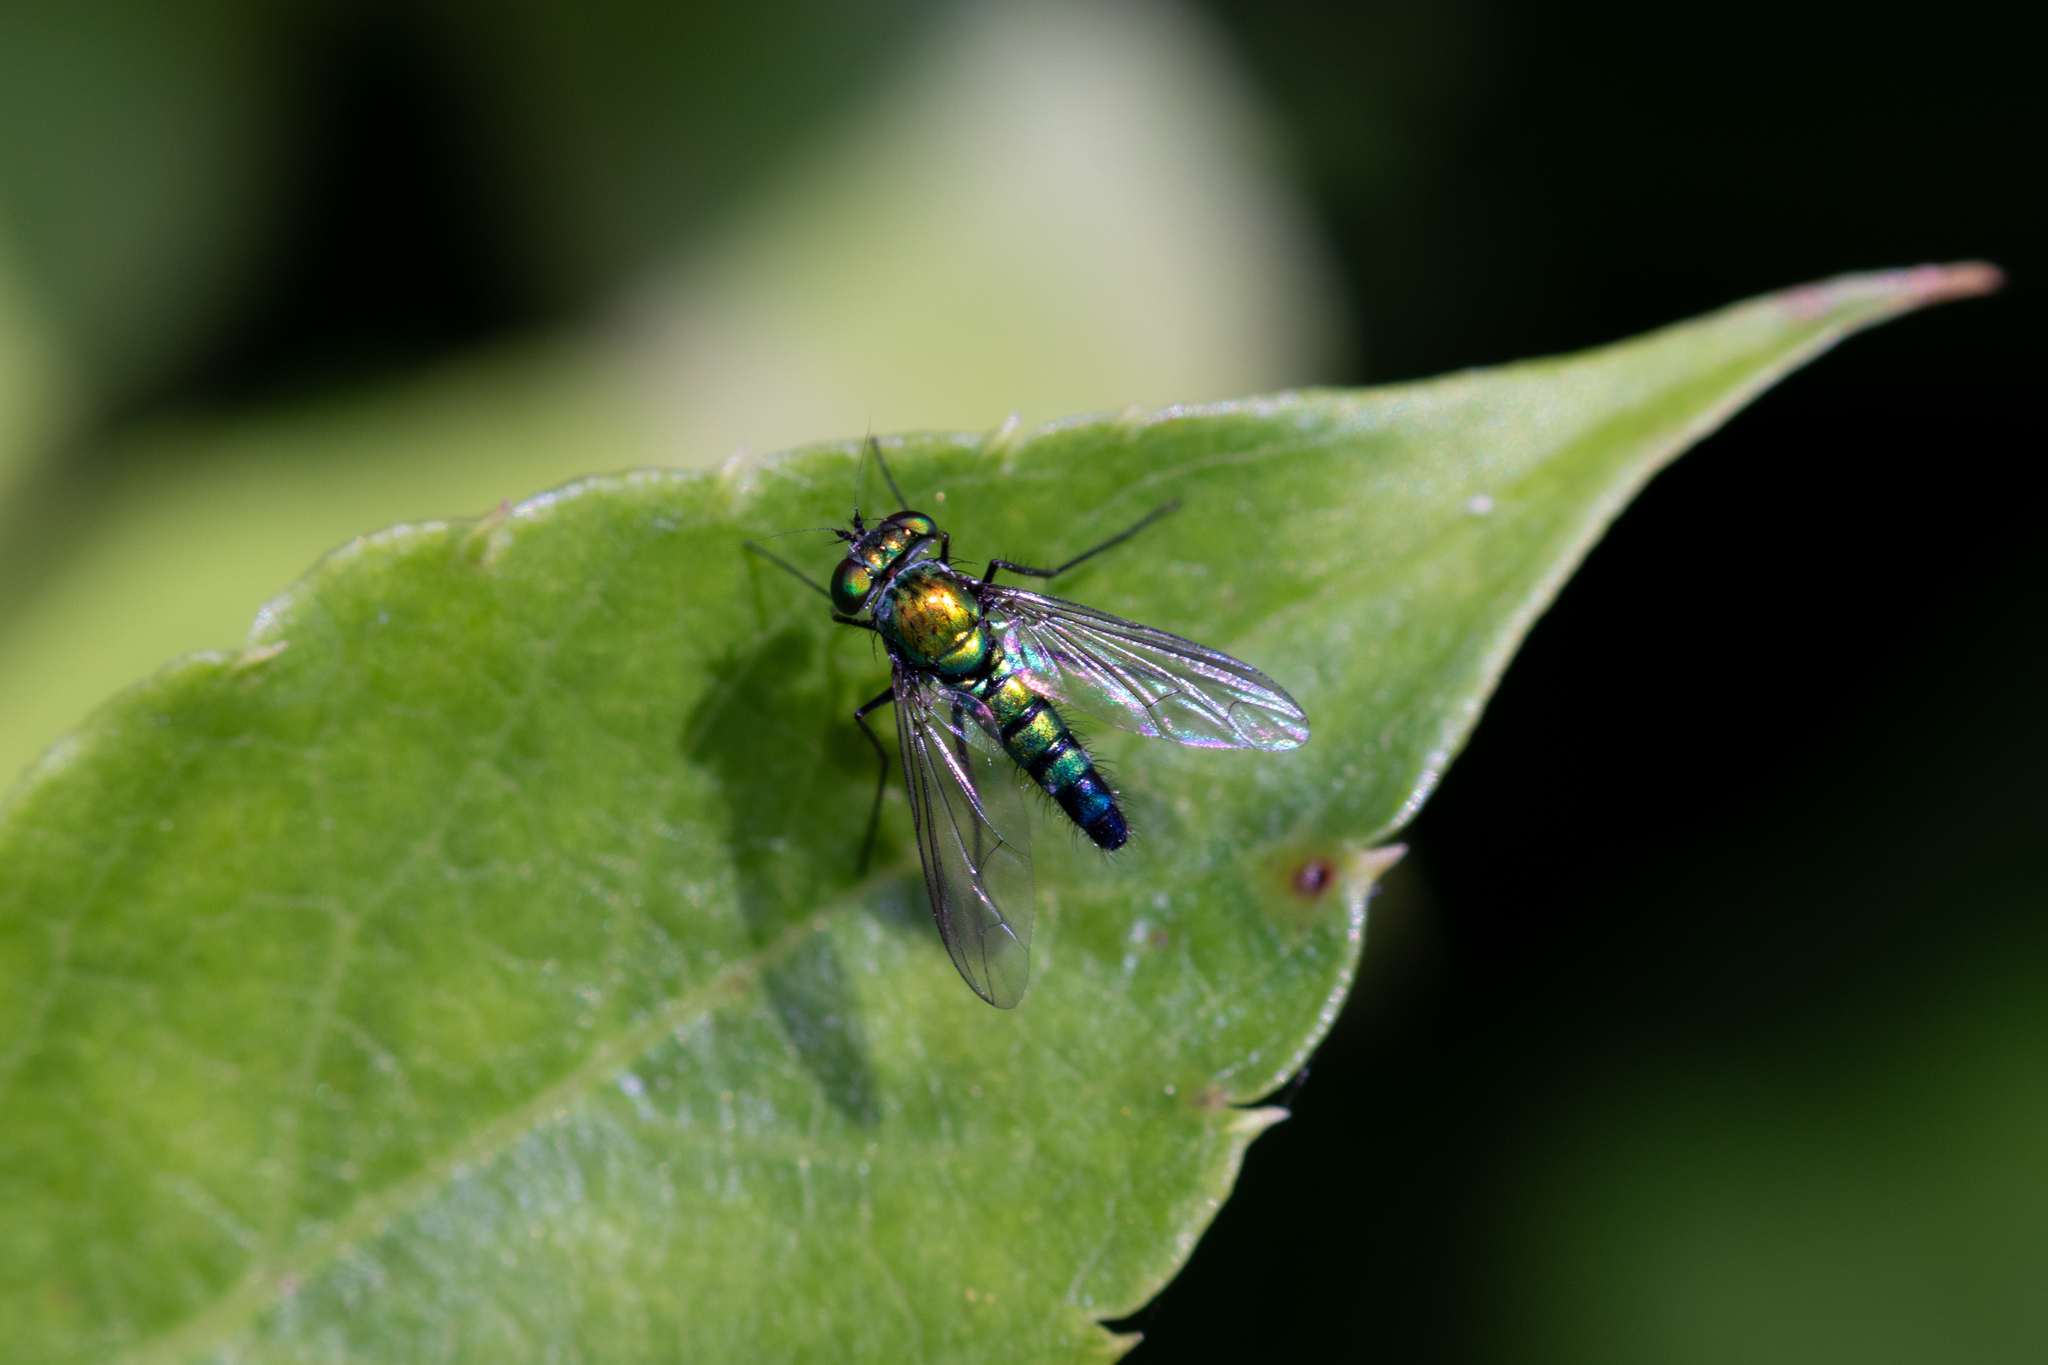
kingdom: Animalia
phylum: Arthropoda
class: Insecta
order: Diptera
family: Dolichopodidae
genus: Condylostylus
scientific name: Condylostylus longicornis
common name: Long-legged fly
